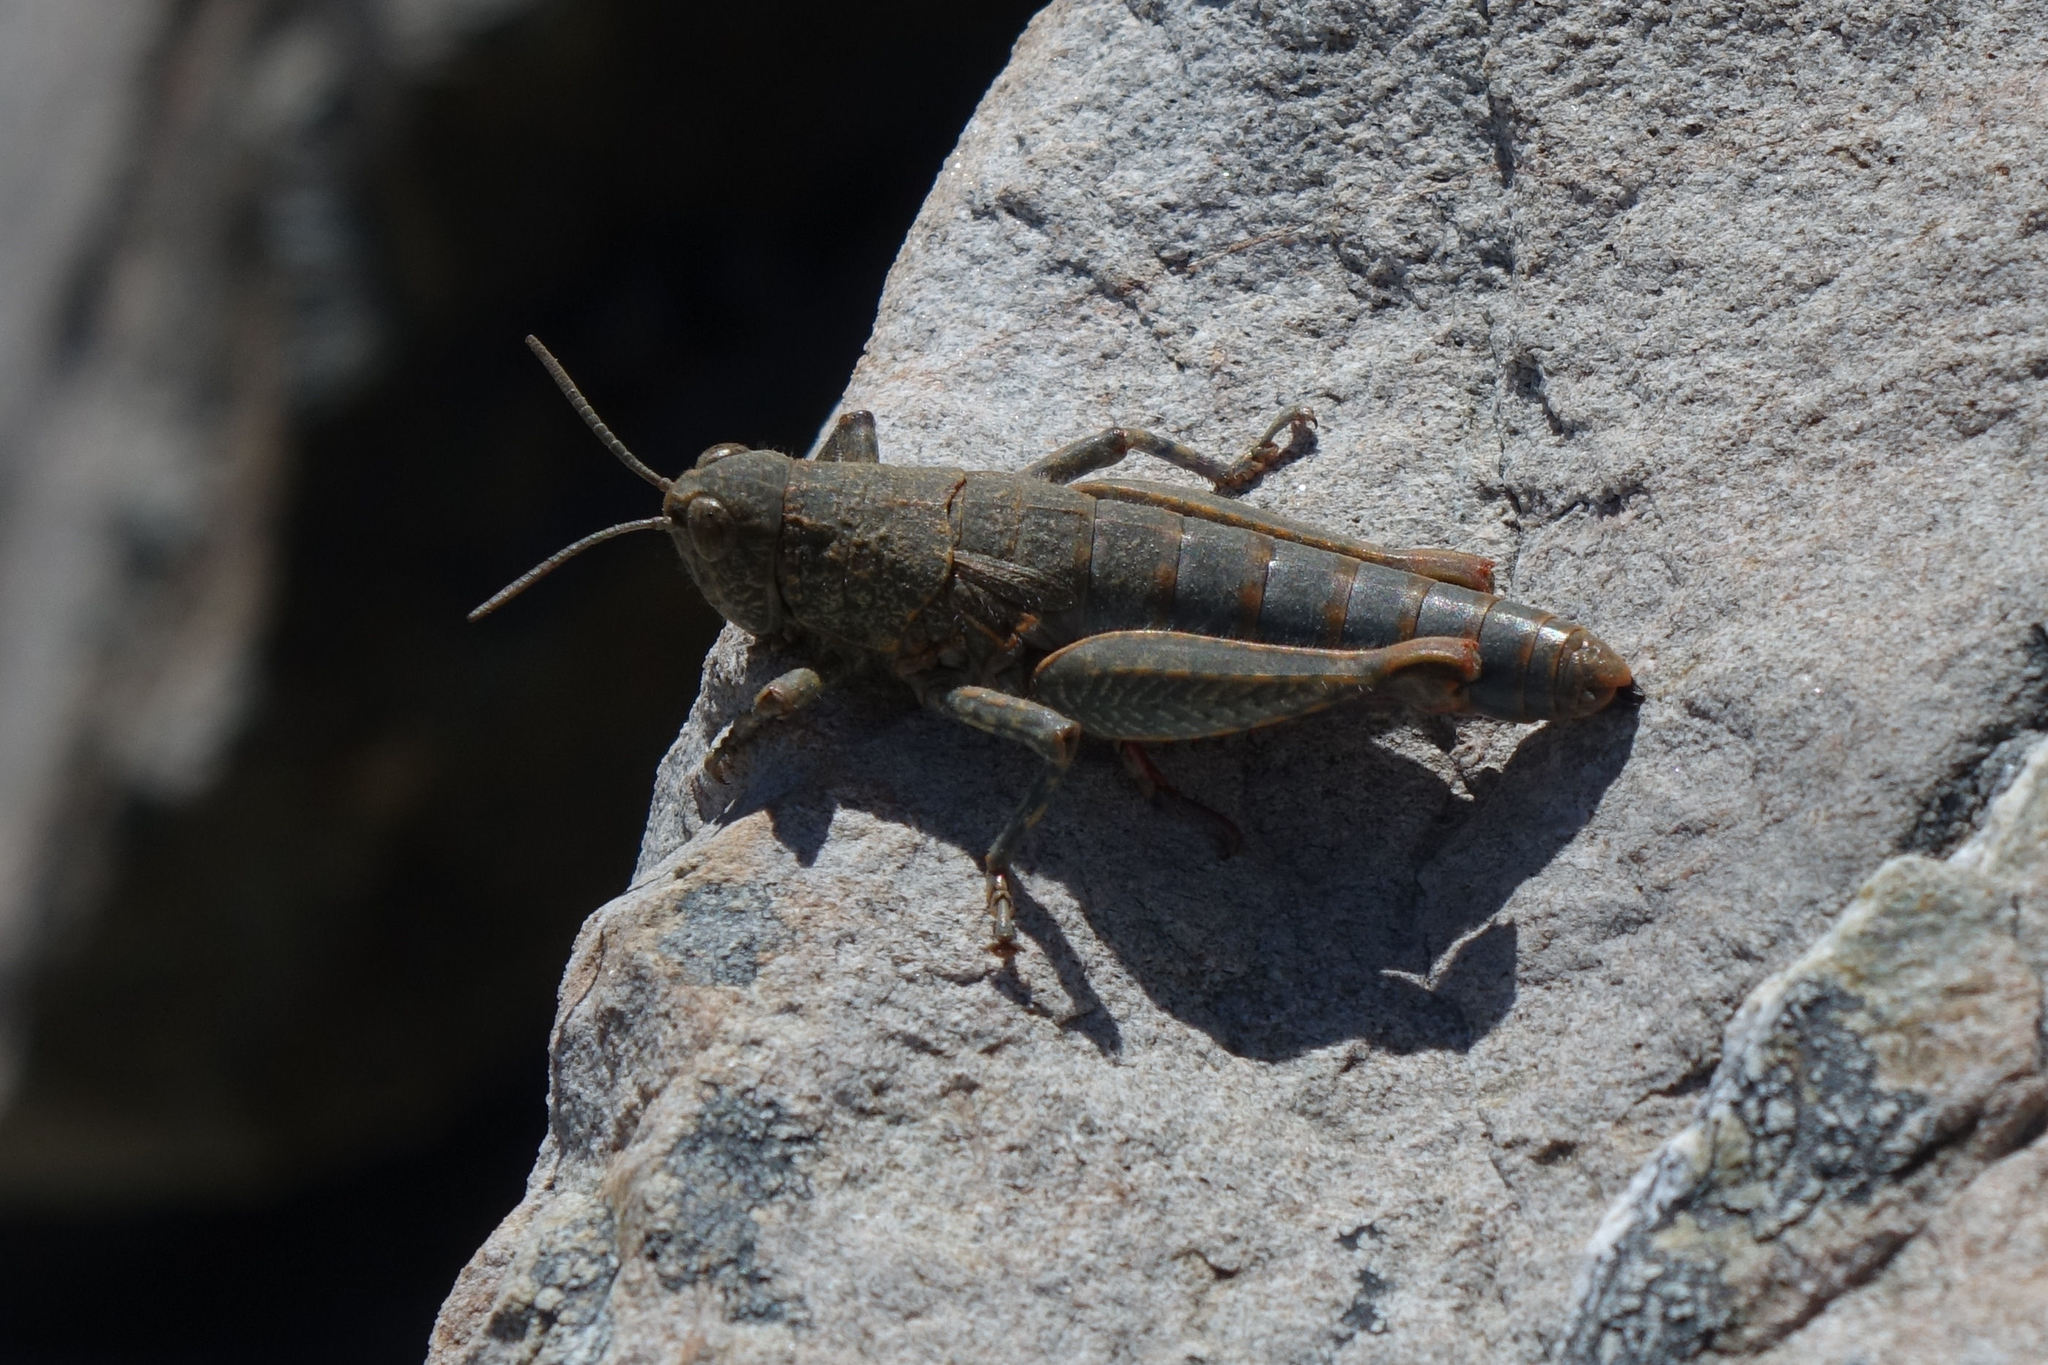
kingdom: Animalia
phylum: Arthropoda
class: Insecta
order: Orthoptera
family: Acrididae
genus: Sigaus
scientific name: Sigaus
